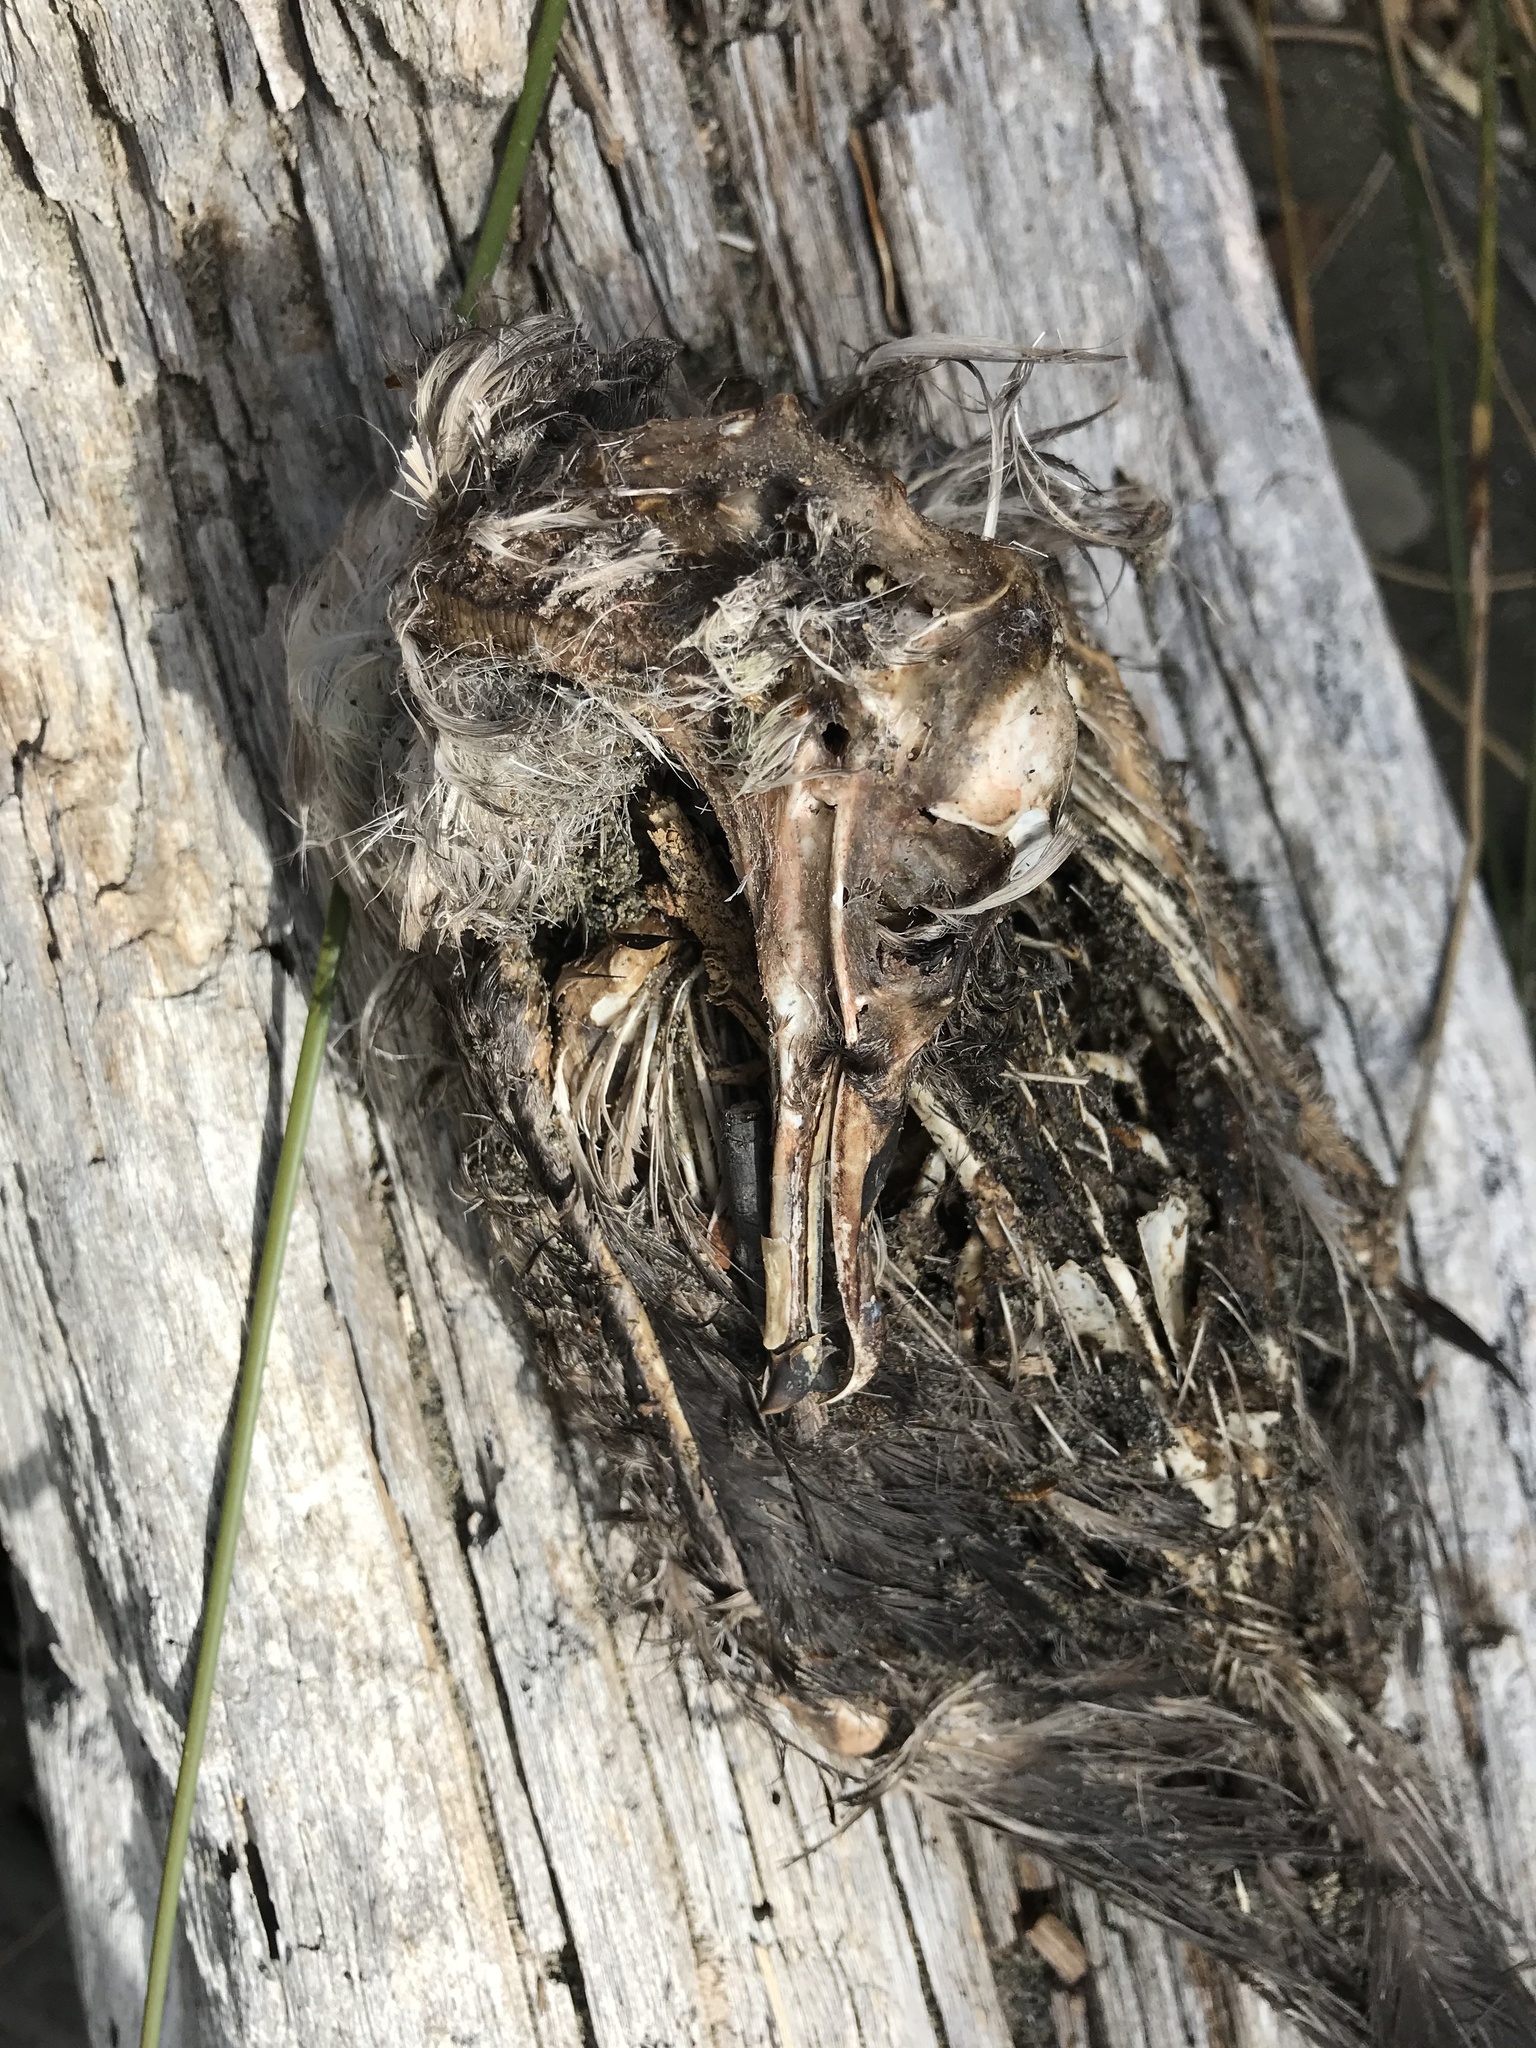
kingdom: Animalia
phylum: Chordata
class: Aves
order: Procellariiformes
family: Procellariidae
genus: Ardenna
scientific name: Ardenna
